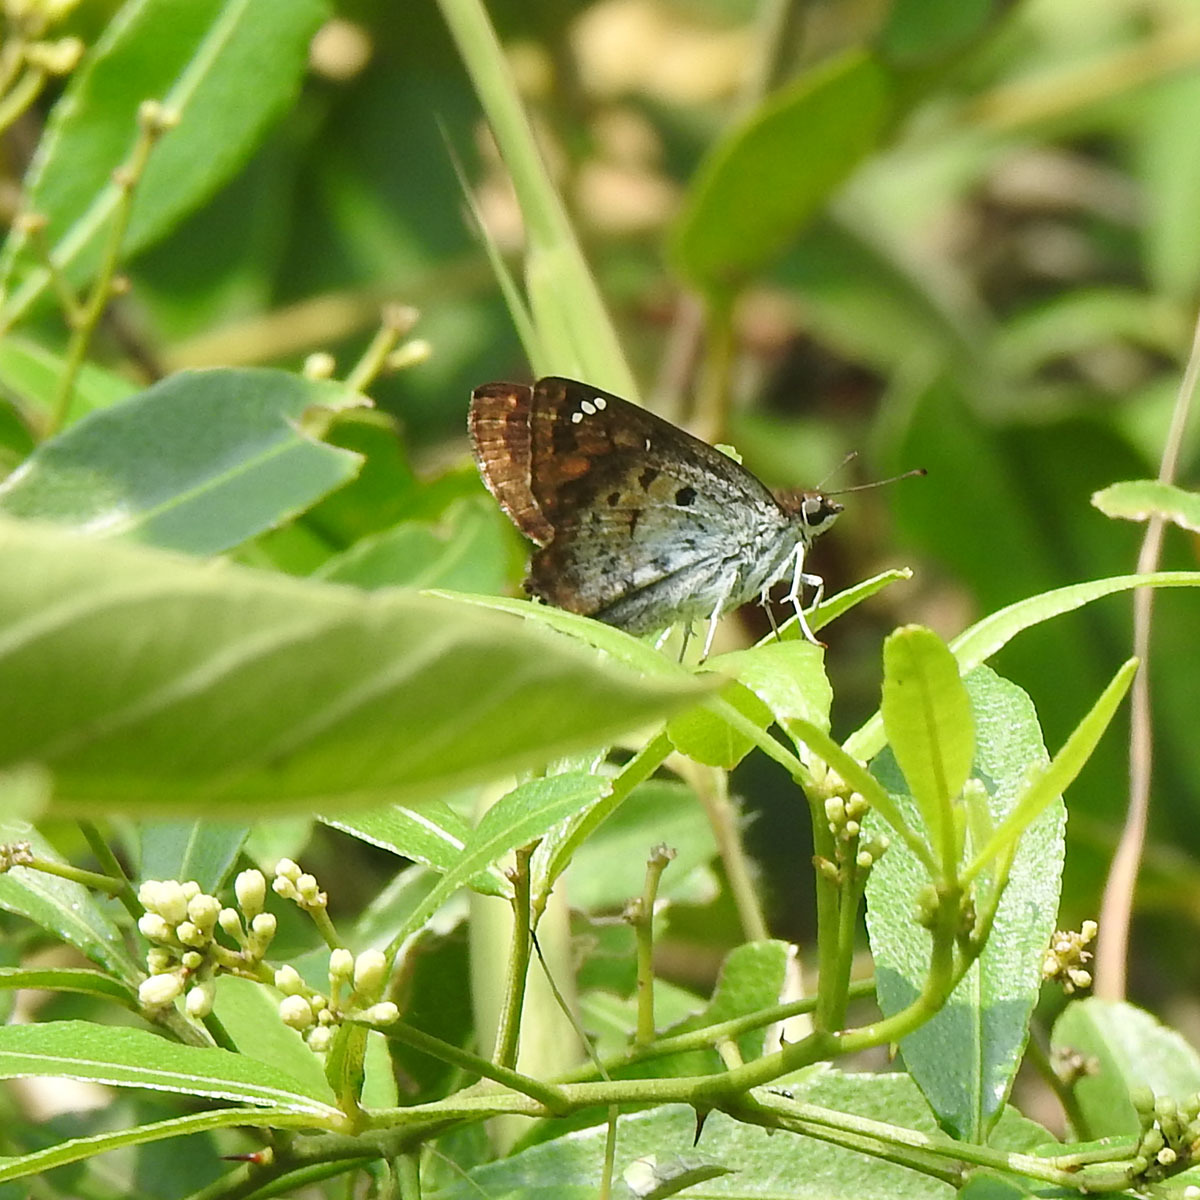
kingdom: Animalia
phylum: Arthropoda
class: Insecta
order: Lepidoptera
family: Hesperiidae
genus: Caprona
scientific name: Caprona ransonnettii
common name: Golden angle
